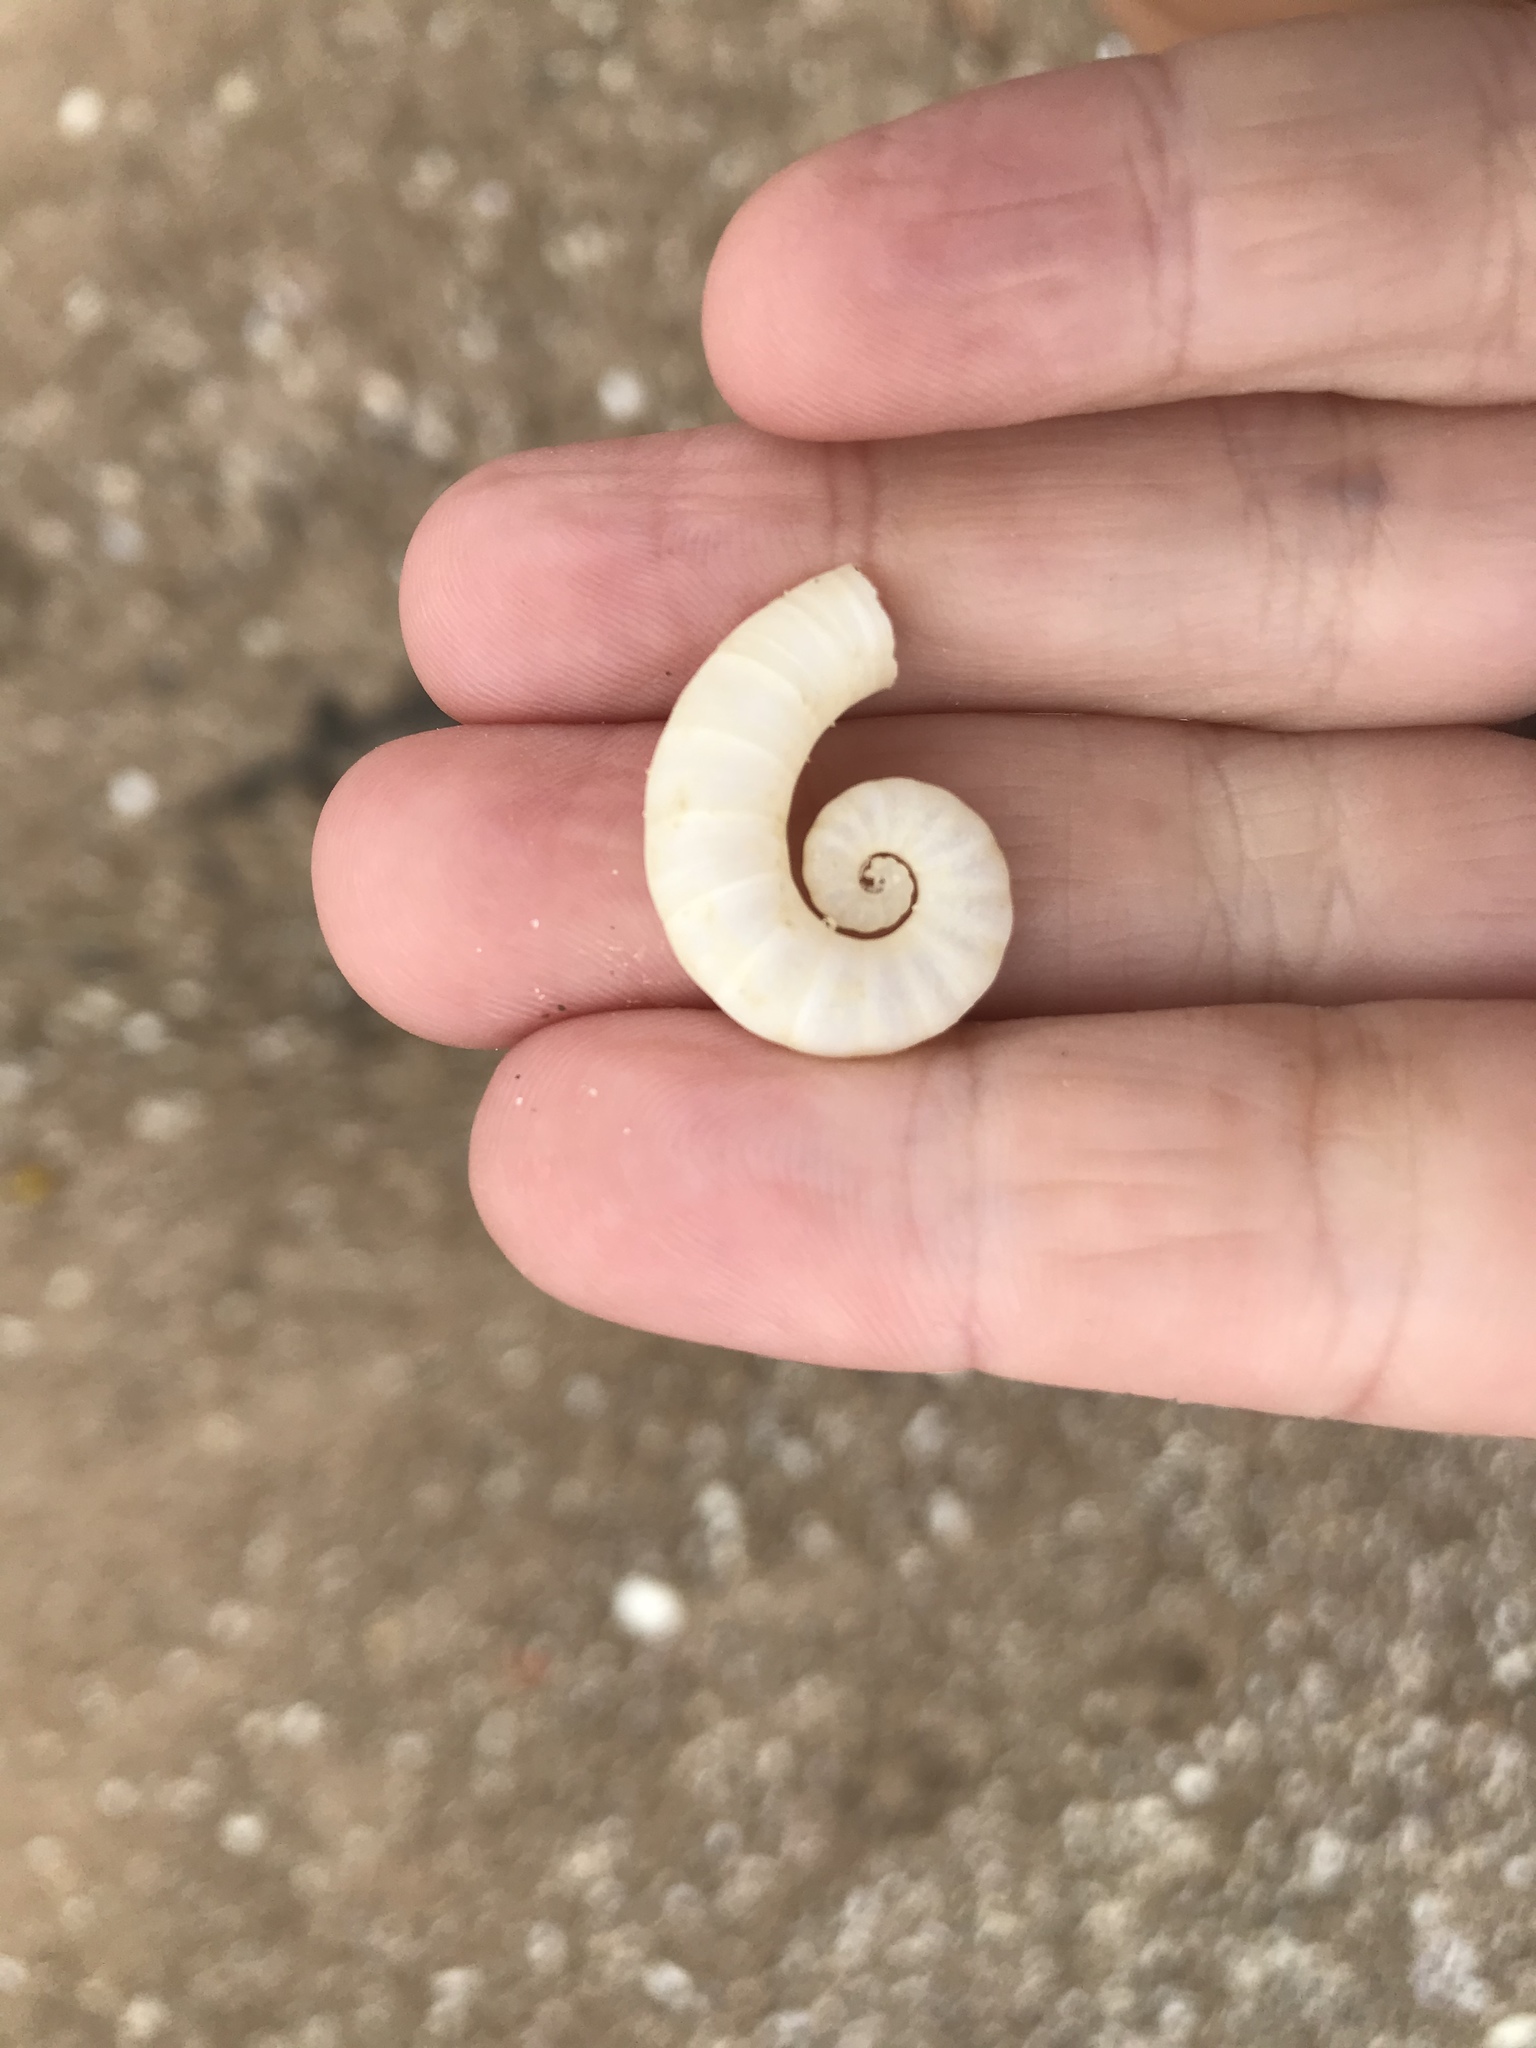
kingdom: Animalia
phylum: Mollusca
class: Cephalopoda
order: Spirulida
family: Spirulidae
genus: Spirula
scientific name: Spirula spirula
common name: Ram's horn squid
